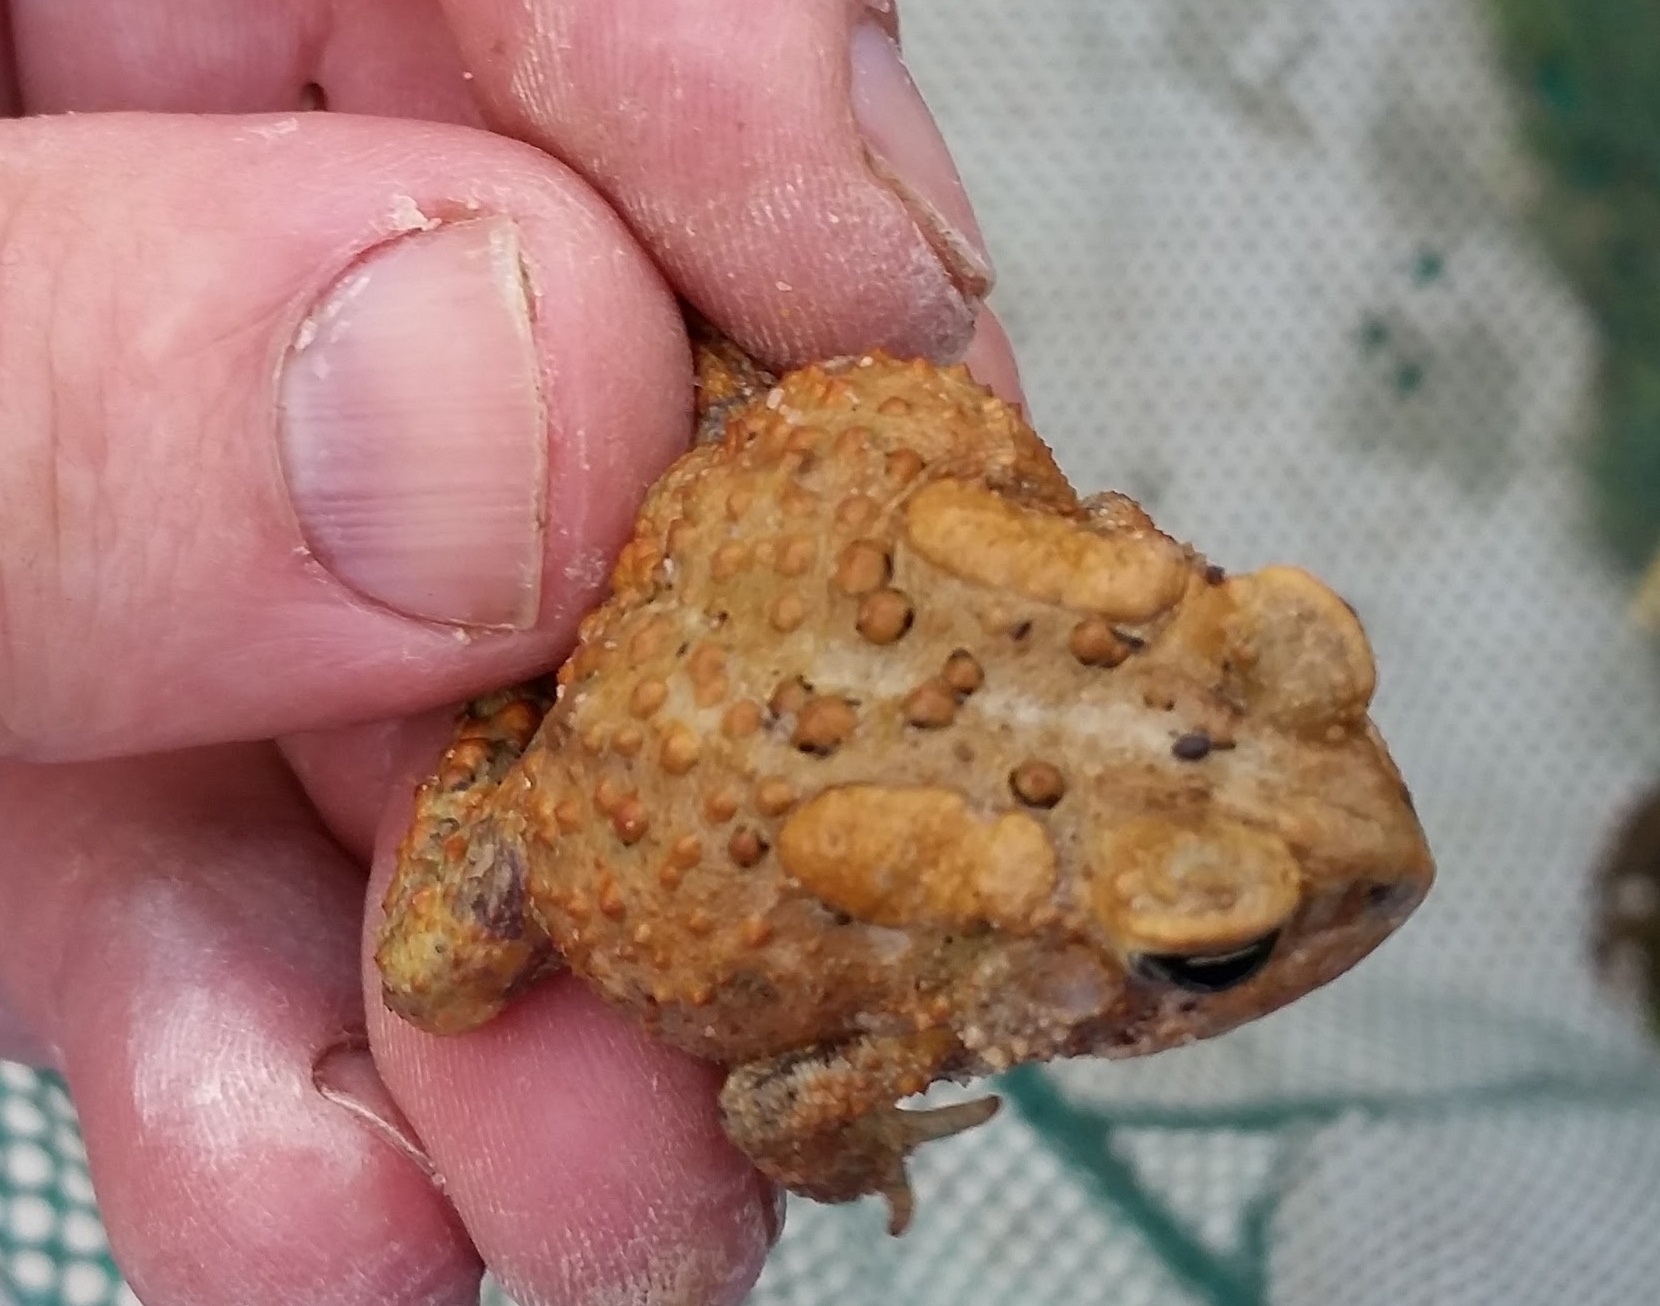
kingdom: Animalia
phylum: Chordata
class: Amphibia
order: Anura
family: Bufonidae
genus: Anaxyrus
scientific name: Anaxyrus americanus
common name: American toad
